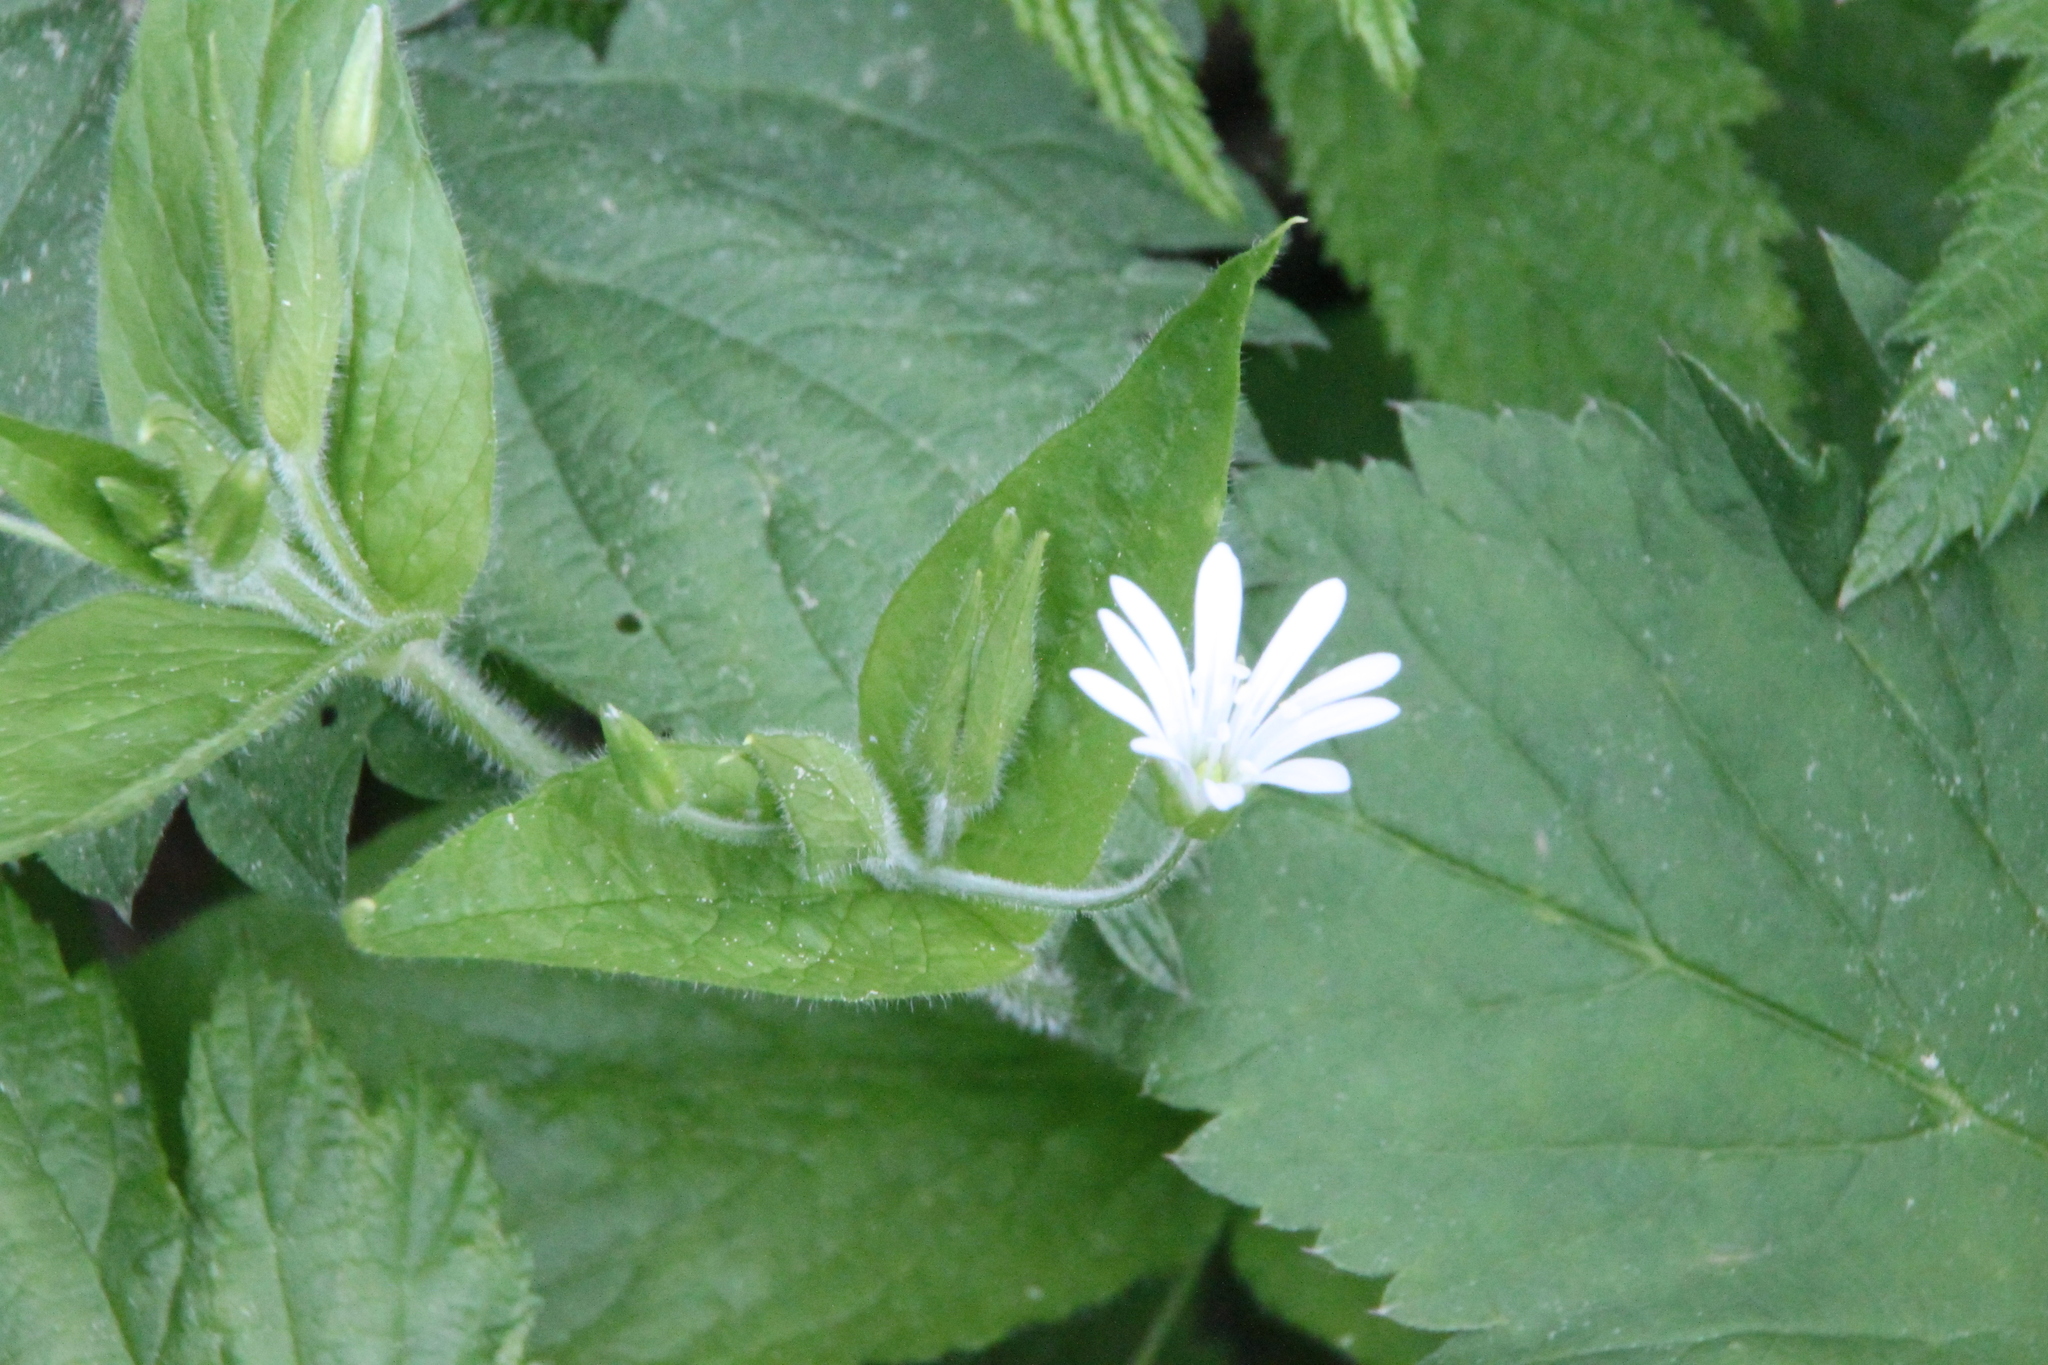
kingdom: Plantae
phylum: Tracheophyta
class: Magnoliopsida
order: Caryophyllales
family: Caryophyllaceae
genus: Stellaria
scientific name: Stellaria nemorum
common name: Wood stitchwort
